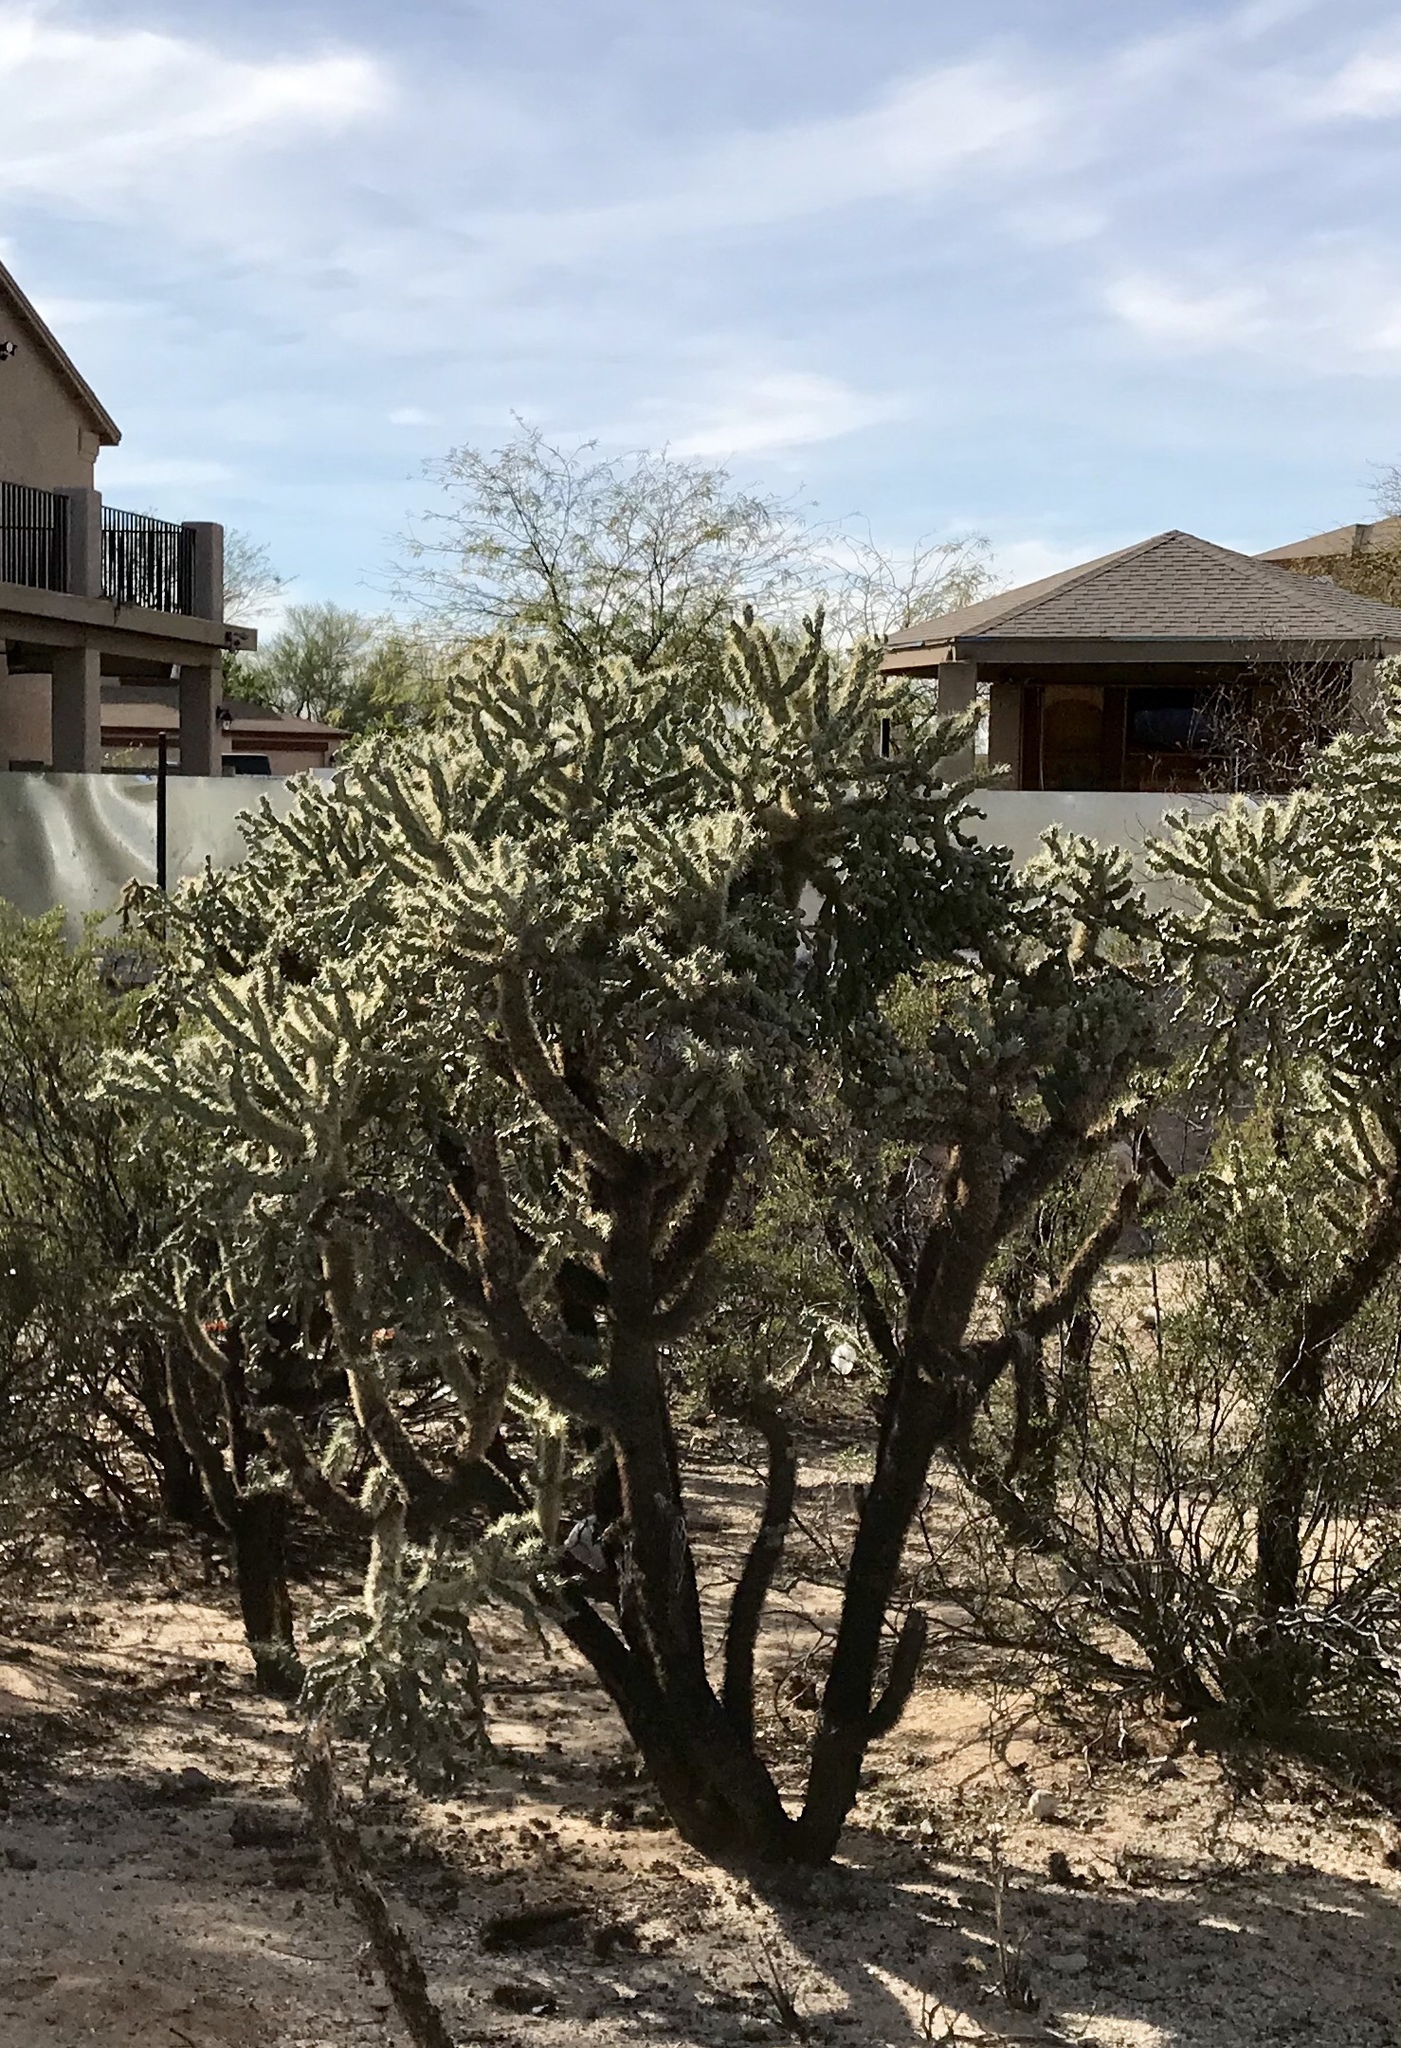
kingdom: Plantae
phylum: Tracheophyta
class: Magnoliopsida
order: Caryophyllales
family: Cactaceae
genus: Cylindropuntia
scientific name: Cylindropuntia fulgida
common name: Jumping cholla
